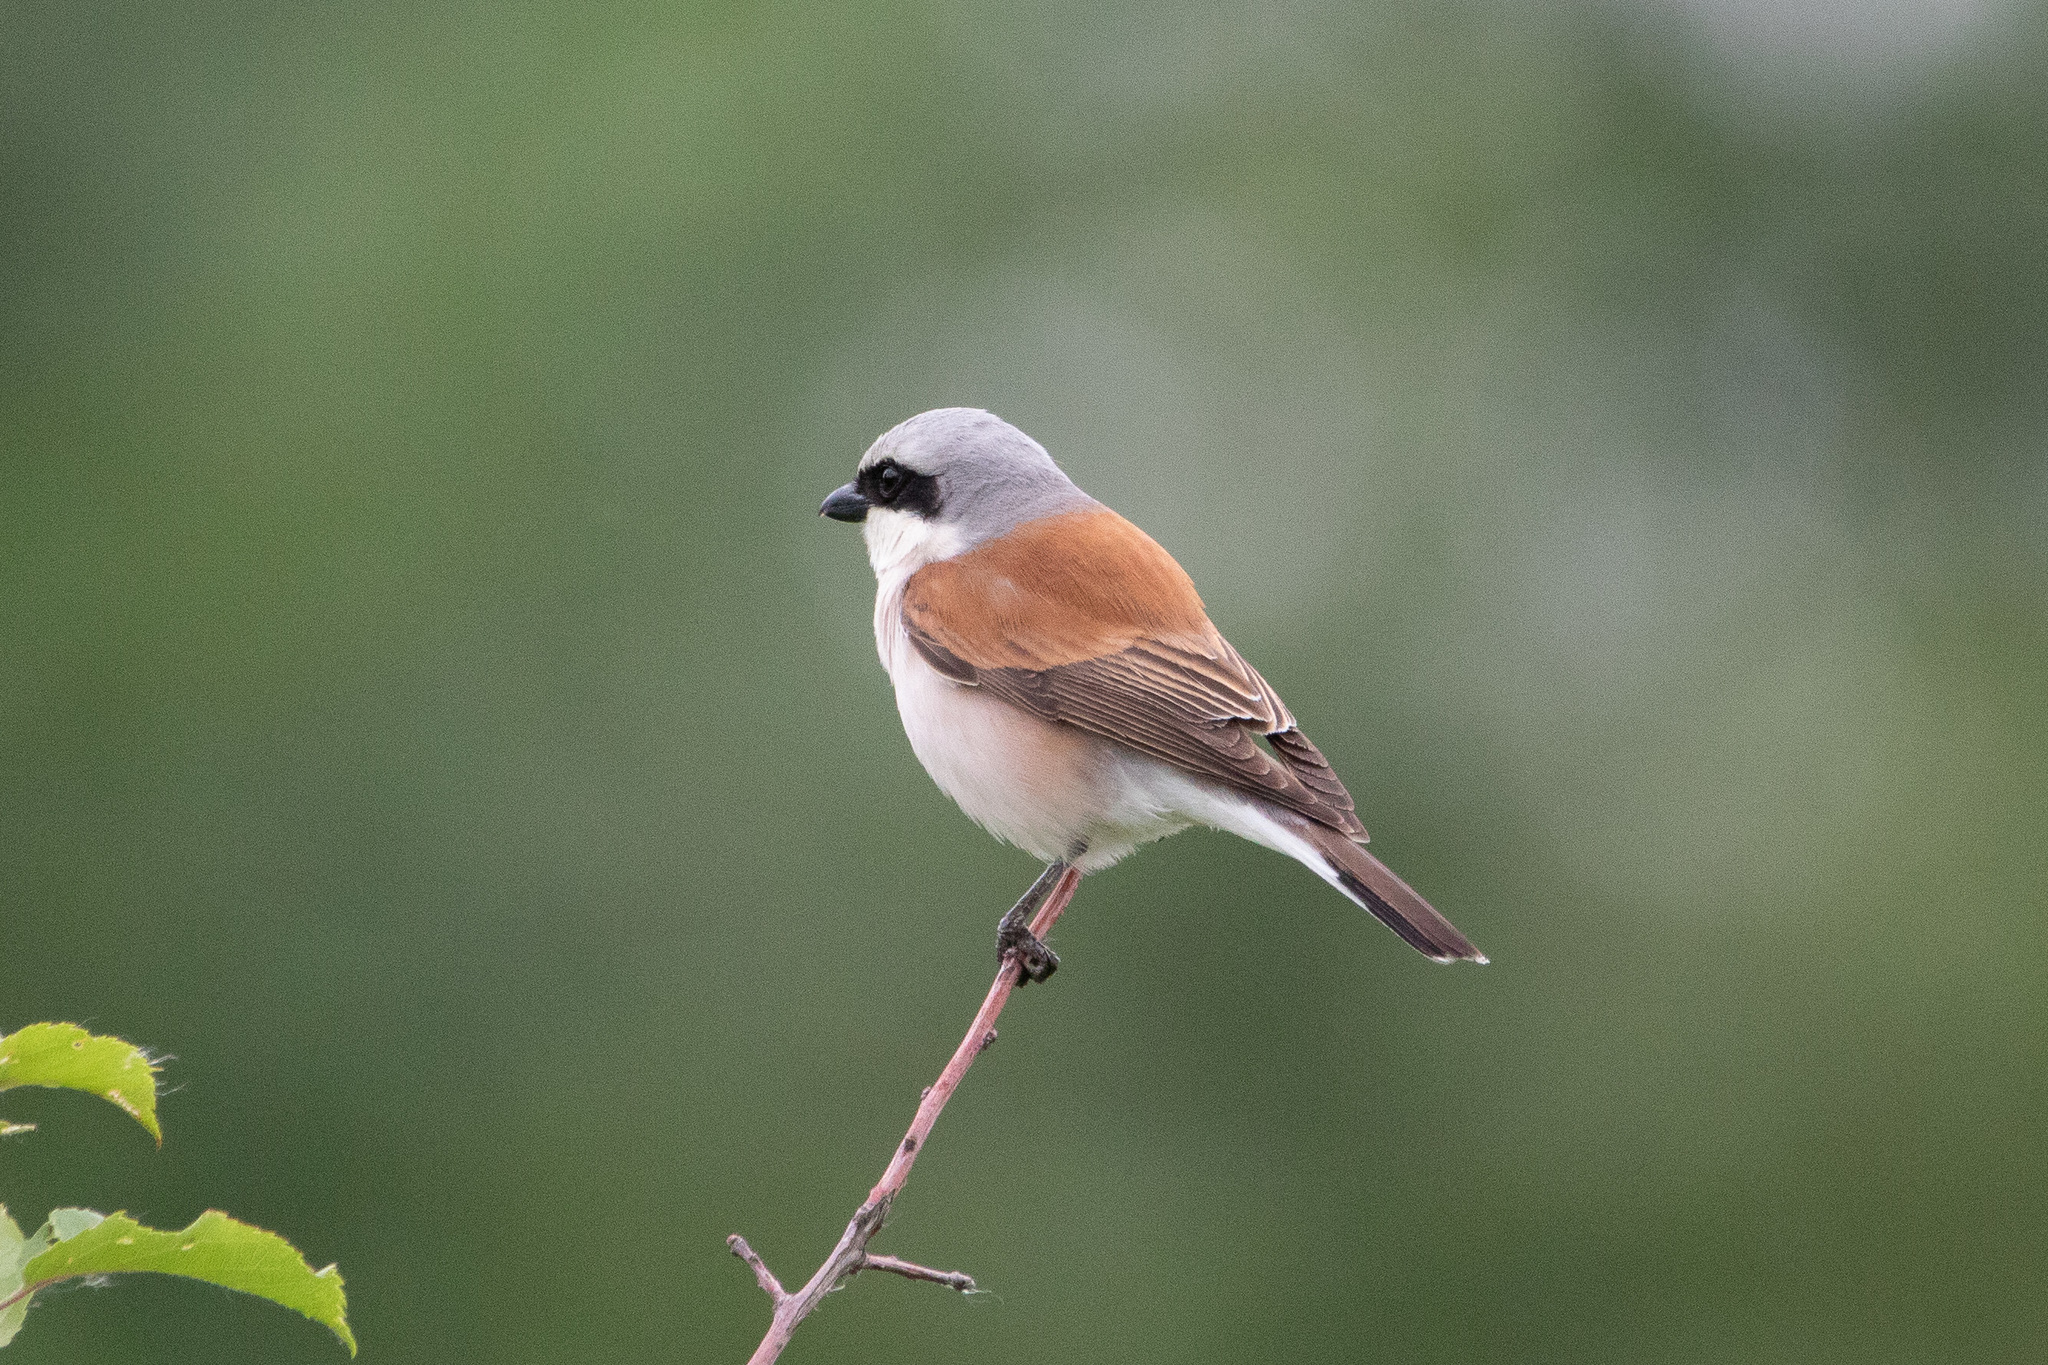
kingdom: Animalia
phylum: Chordata
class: Aves
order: Passeriformes
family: Laniidae
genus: Lanius
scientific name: Lanius collurio
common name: Red-backed shrike
